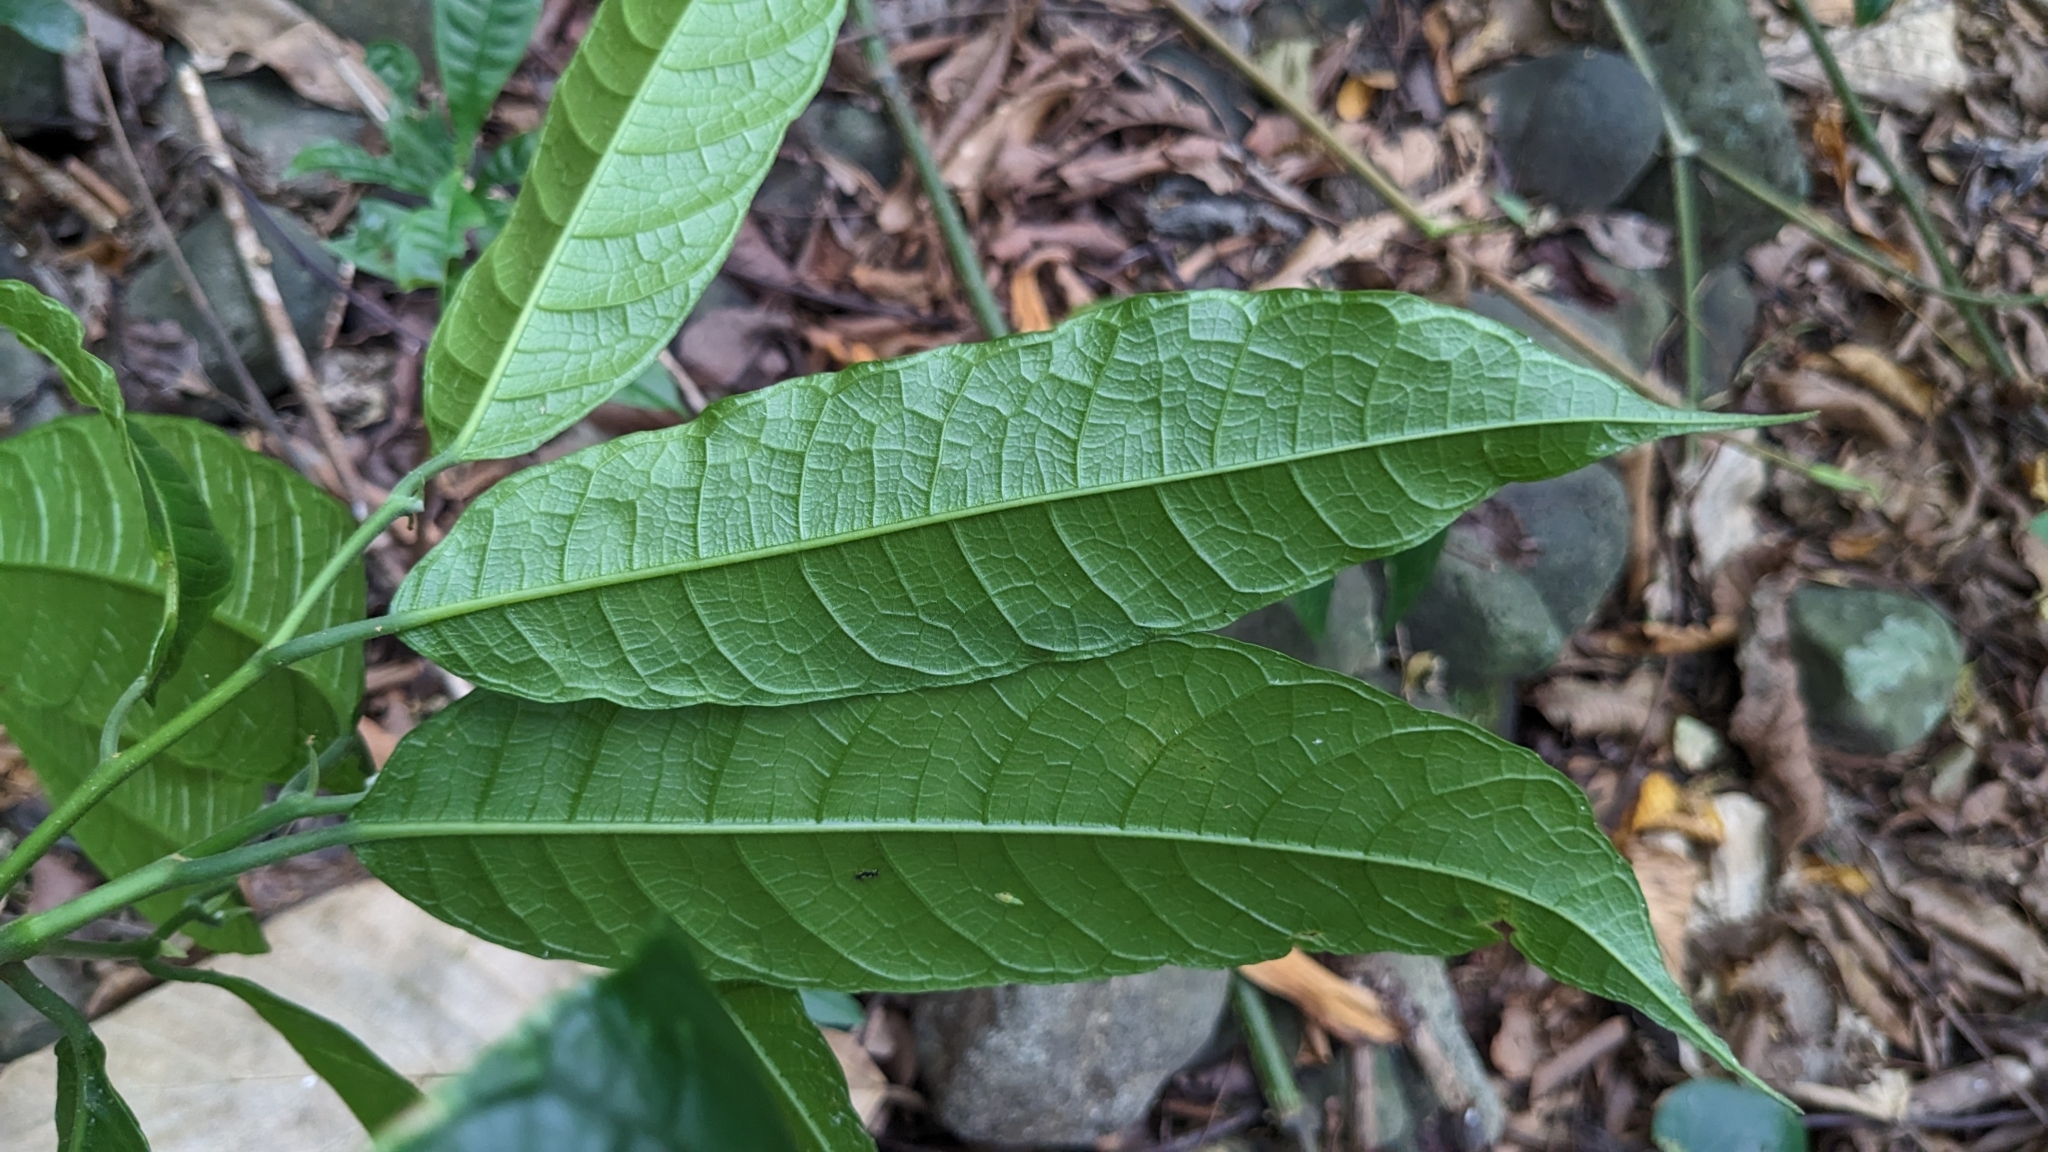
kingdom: Plantae
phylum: Tracheophyta
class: Magnoliopsida
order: Rosales
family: Moraceae
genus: Artocarpus
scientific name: Artocarpus lamellosus
